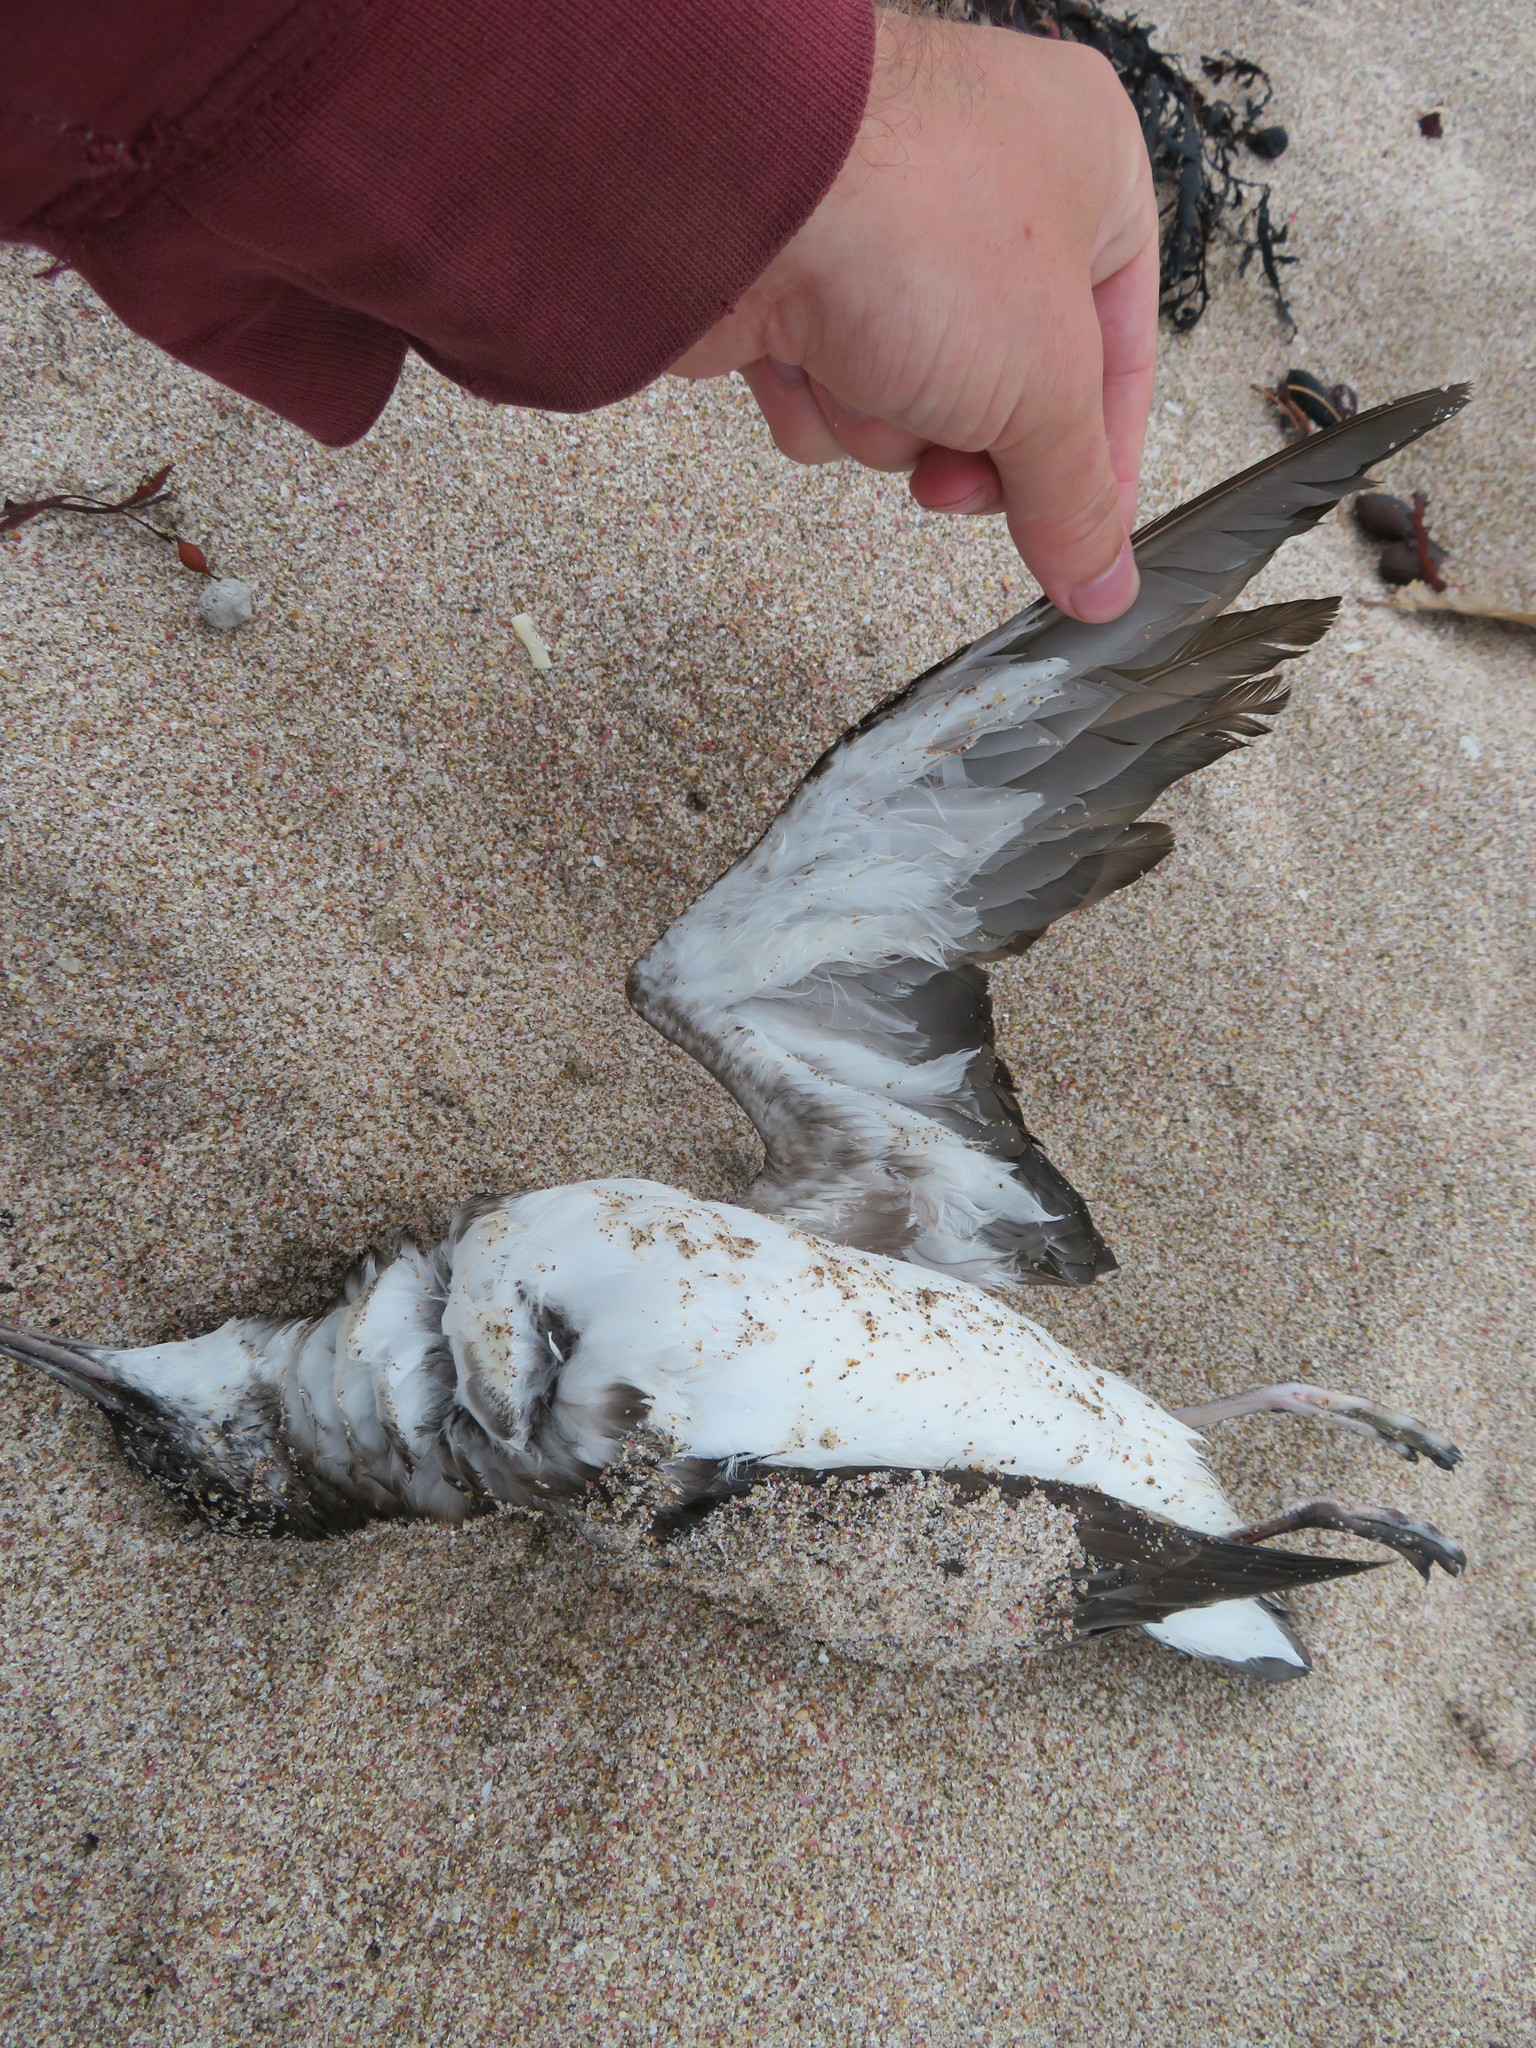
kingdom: Animalia
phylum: Chordata
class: Aves
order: Procellariiformes
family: Procellariidae
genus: Puffinus
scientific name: Puffinus gavia
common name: Fluttering shearwater
